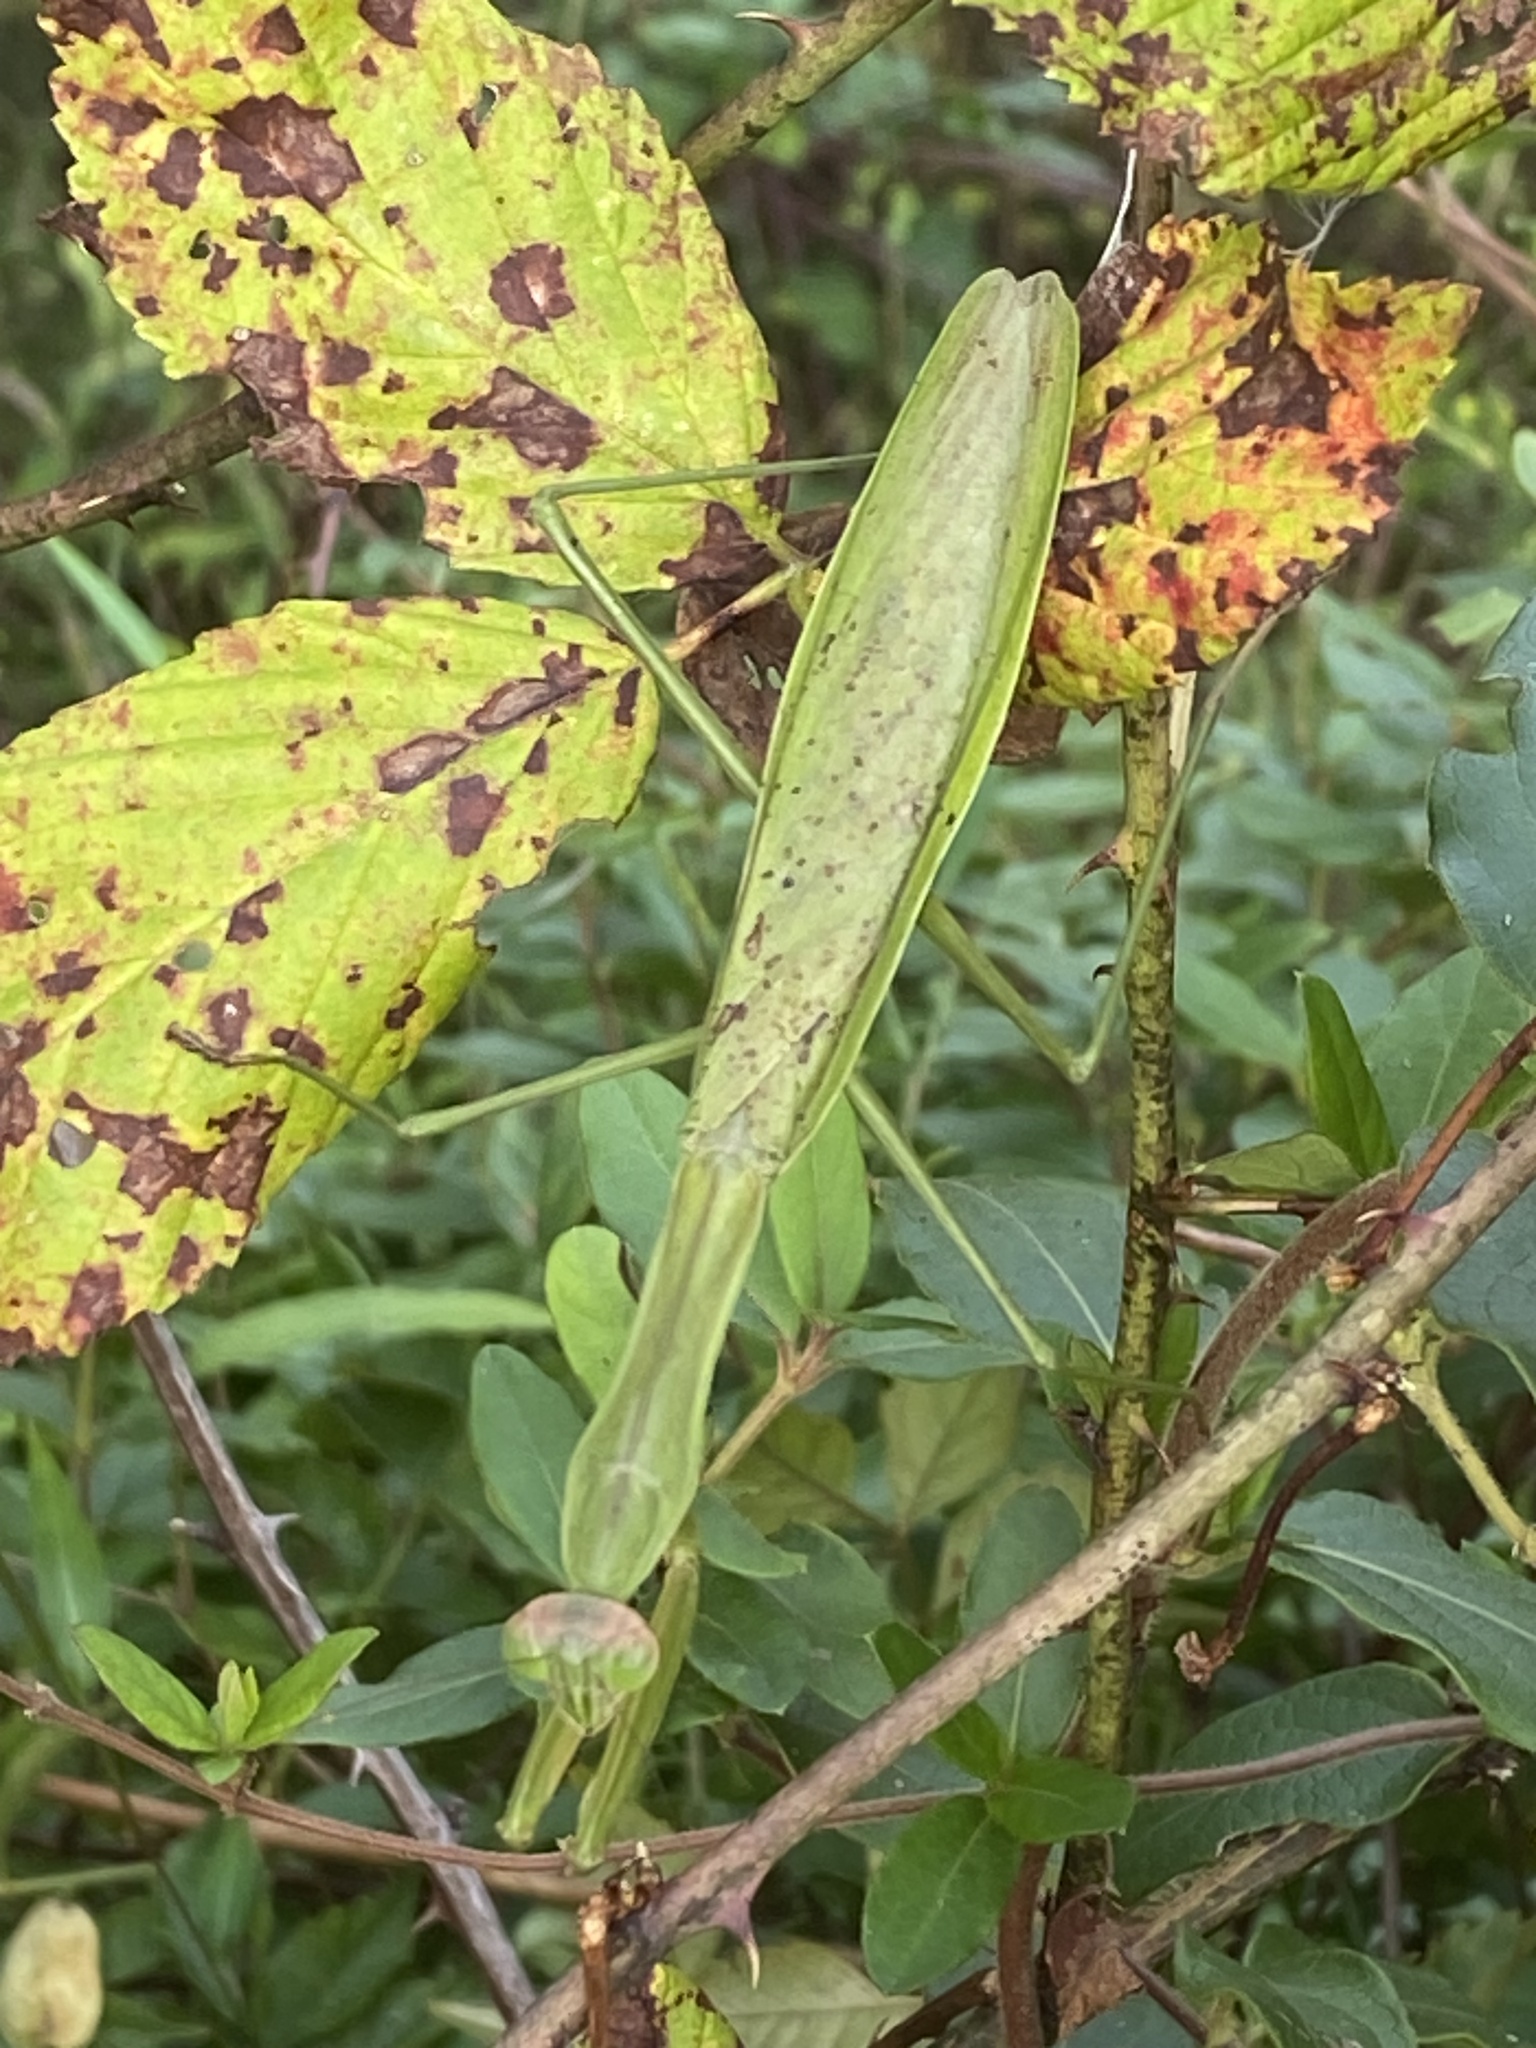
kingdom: Animalia
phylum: Arthropoda
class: Insecta
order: Mantodea
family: Mantidae
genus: Tenodera
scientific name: Tenodera sinensis
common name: Chinese mantis
